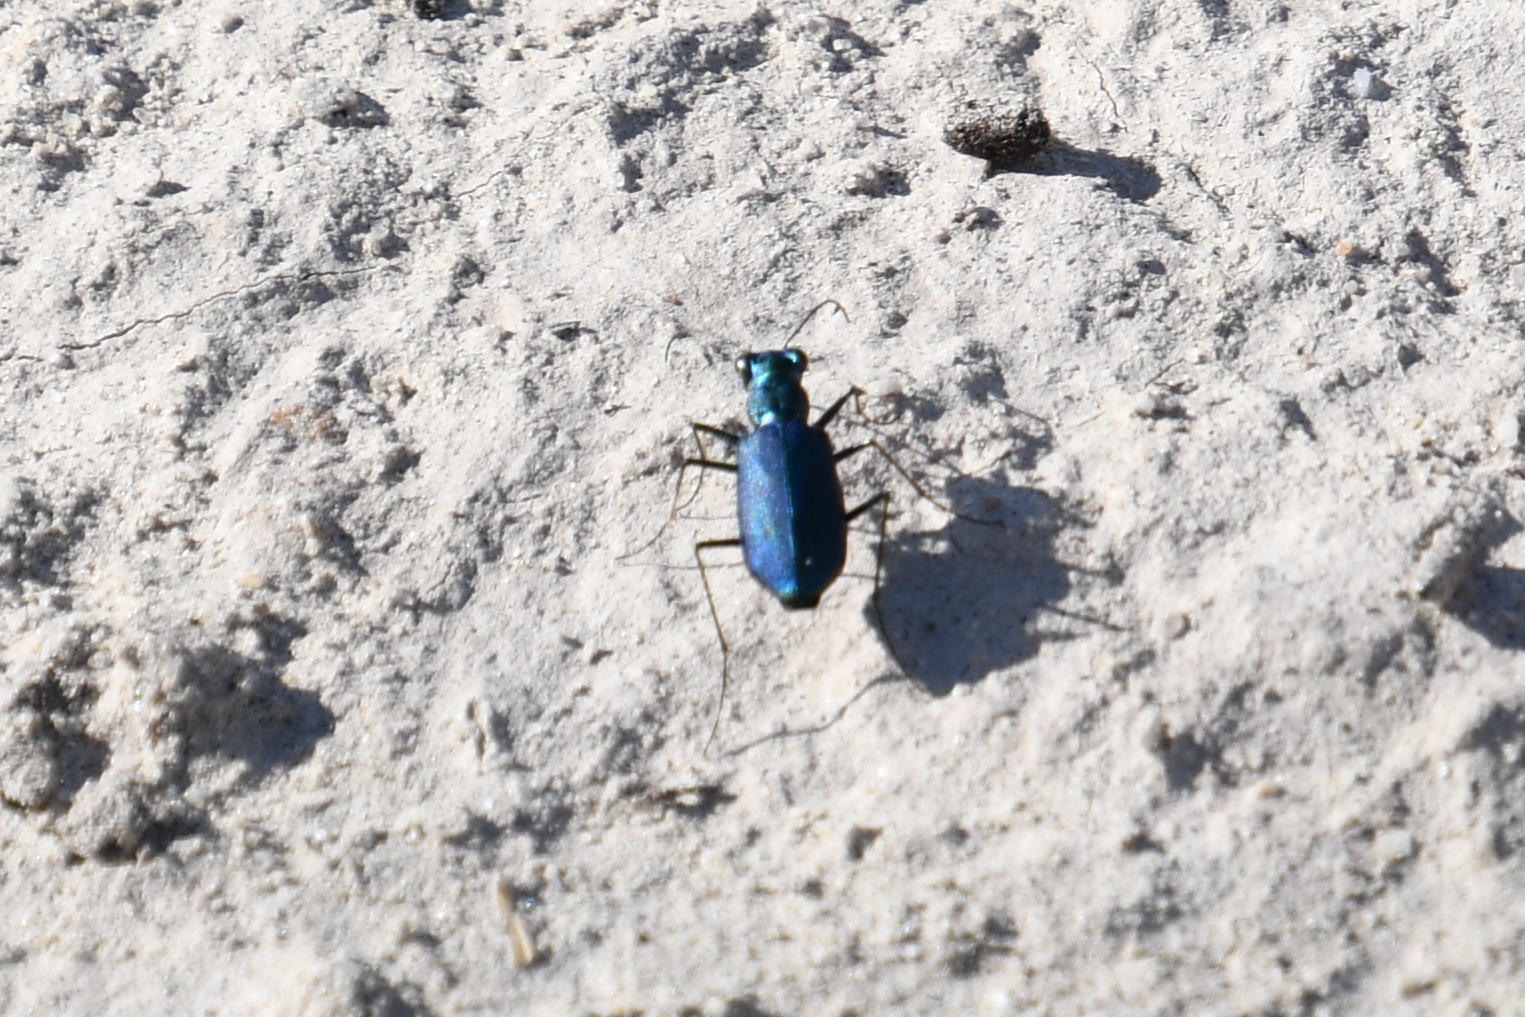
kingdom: Animalia
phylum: Arthropoda
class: Insecta
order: Coleoptera
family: Carabidae
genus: Cicindela
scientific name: Cicindela punctulata
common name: Punctured tiger beetle
